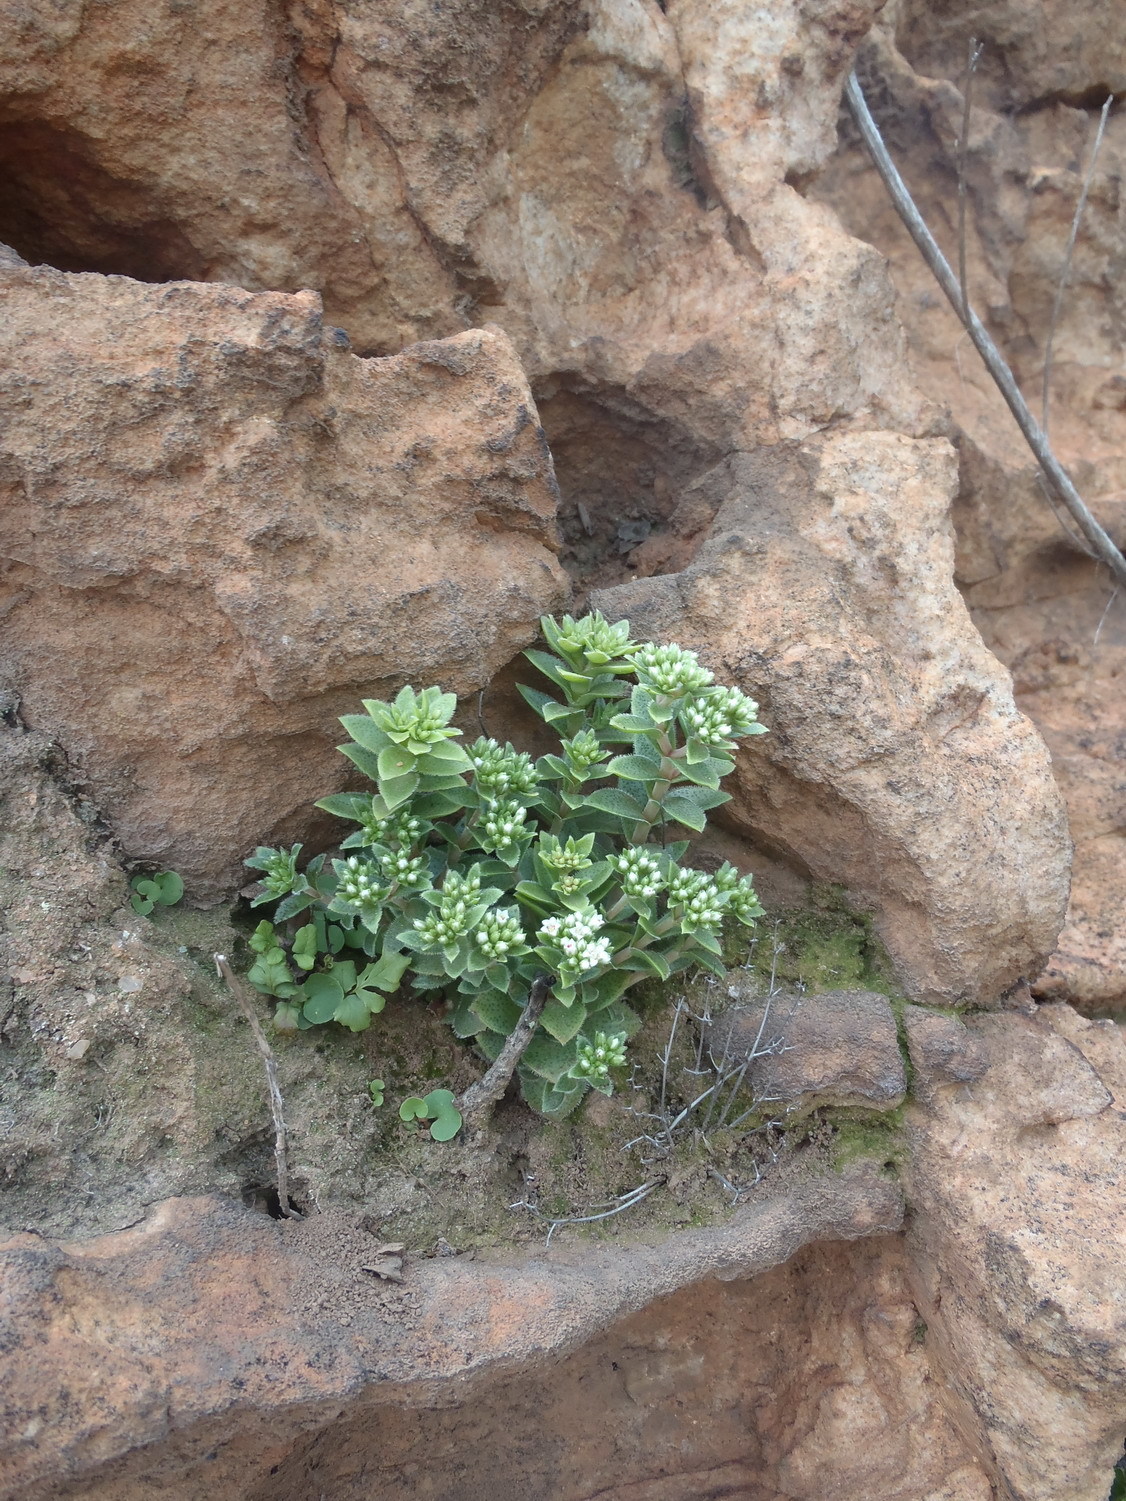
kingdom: Plantae
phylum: Tracheophyta
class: Magnoliopsida
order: Saxifragales
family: Crassulaceae
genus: Crassula
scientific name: Crassula setulosa
